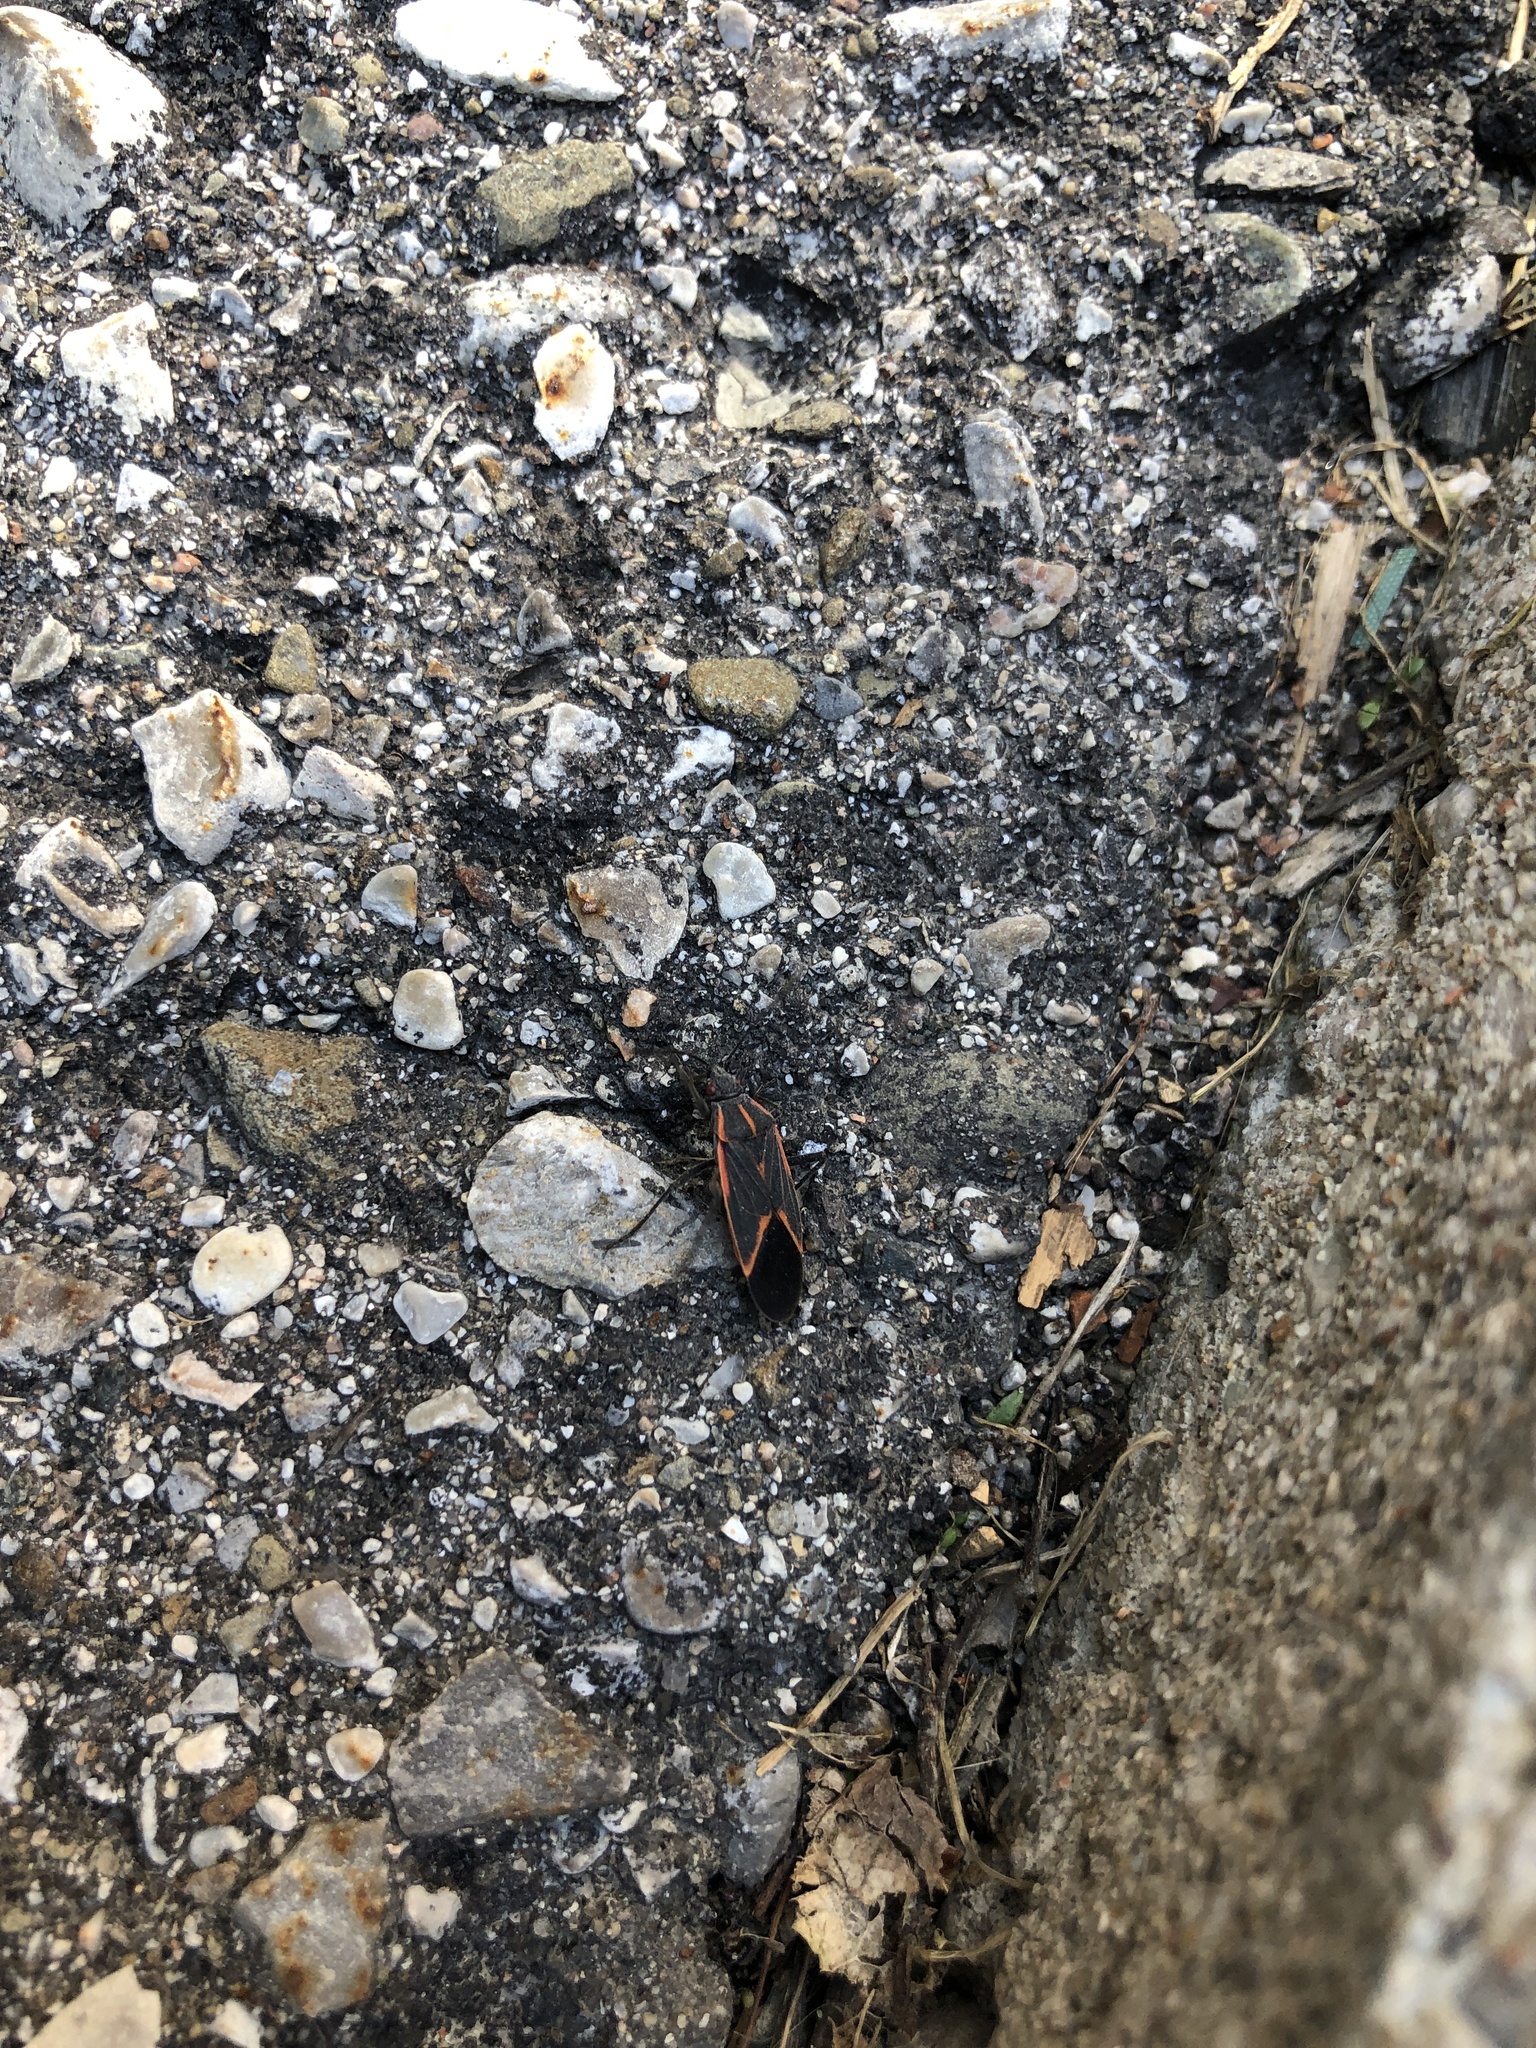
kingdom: Animalia
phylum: Arthropoda
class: Insecta
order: Hemiptera
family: Rhopalidae
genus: Boisea
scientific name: Boisea trivittata
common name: Boxelder bug
